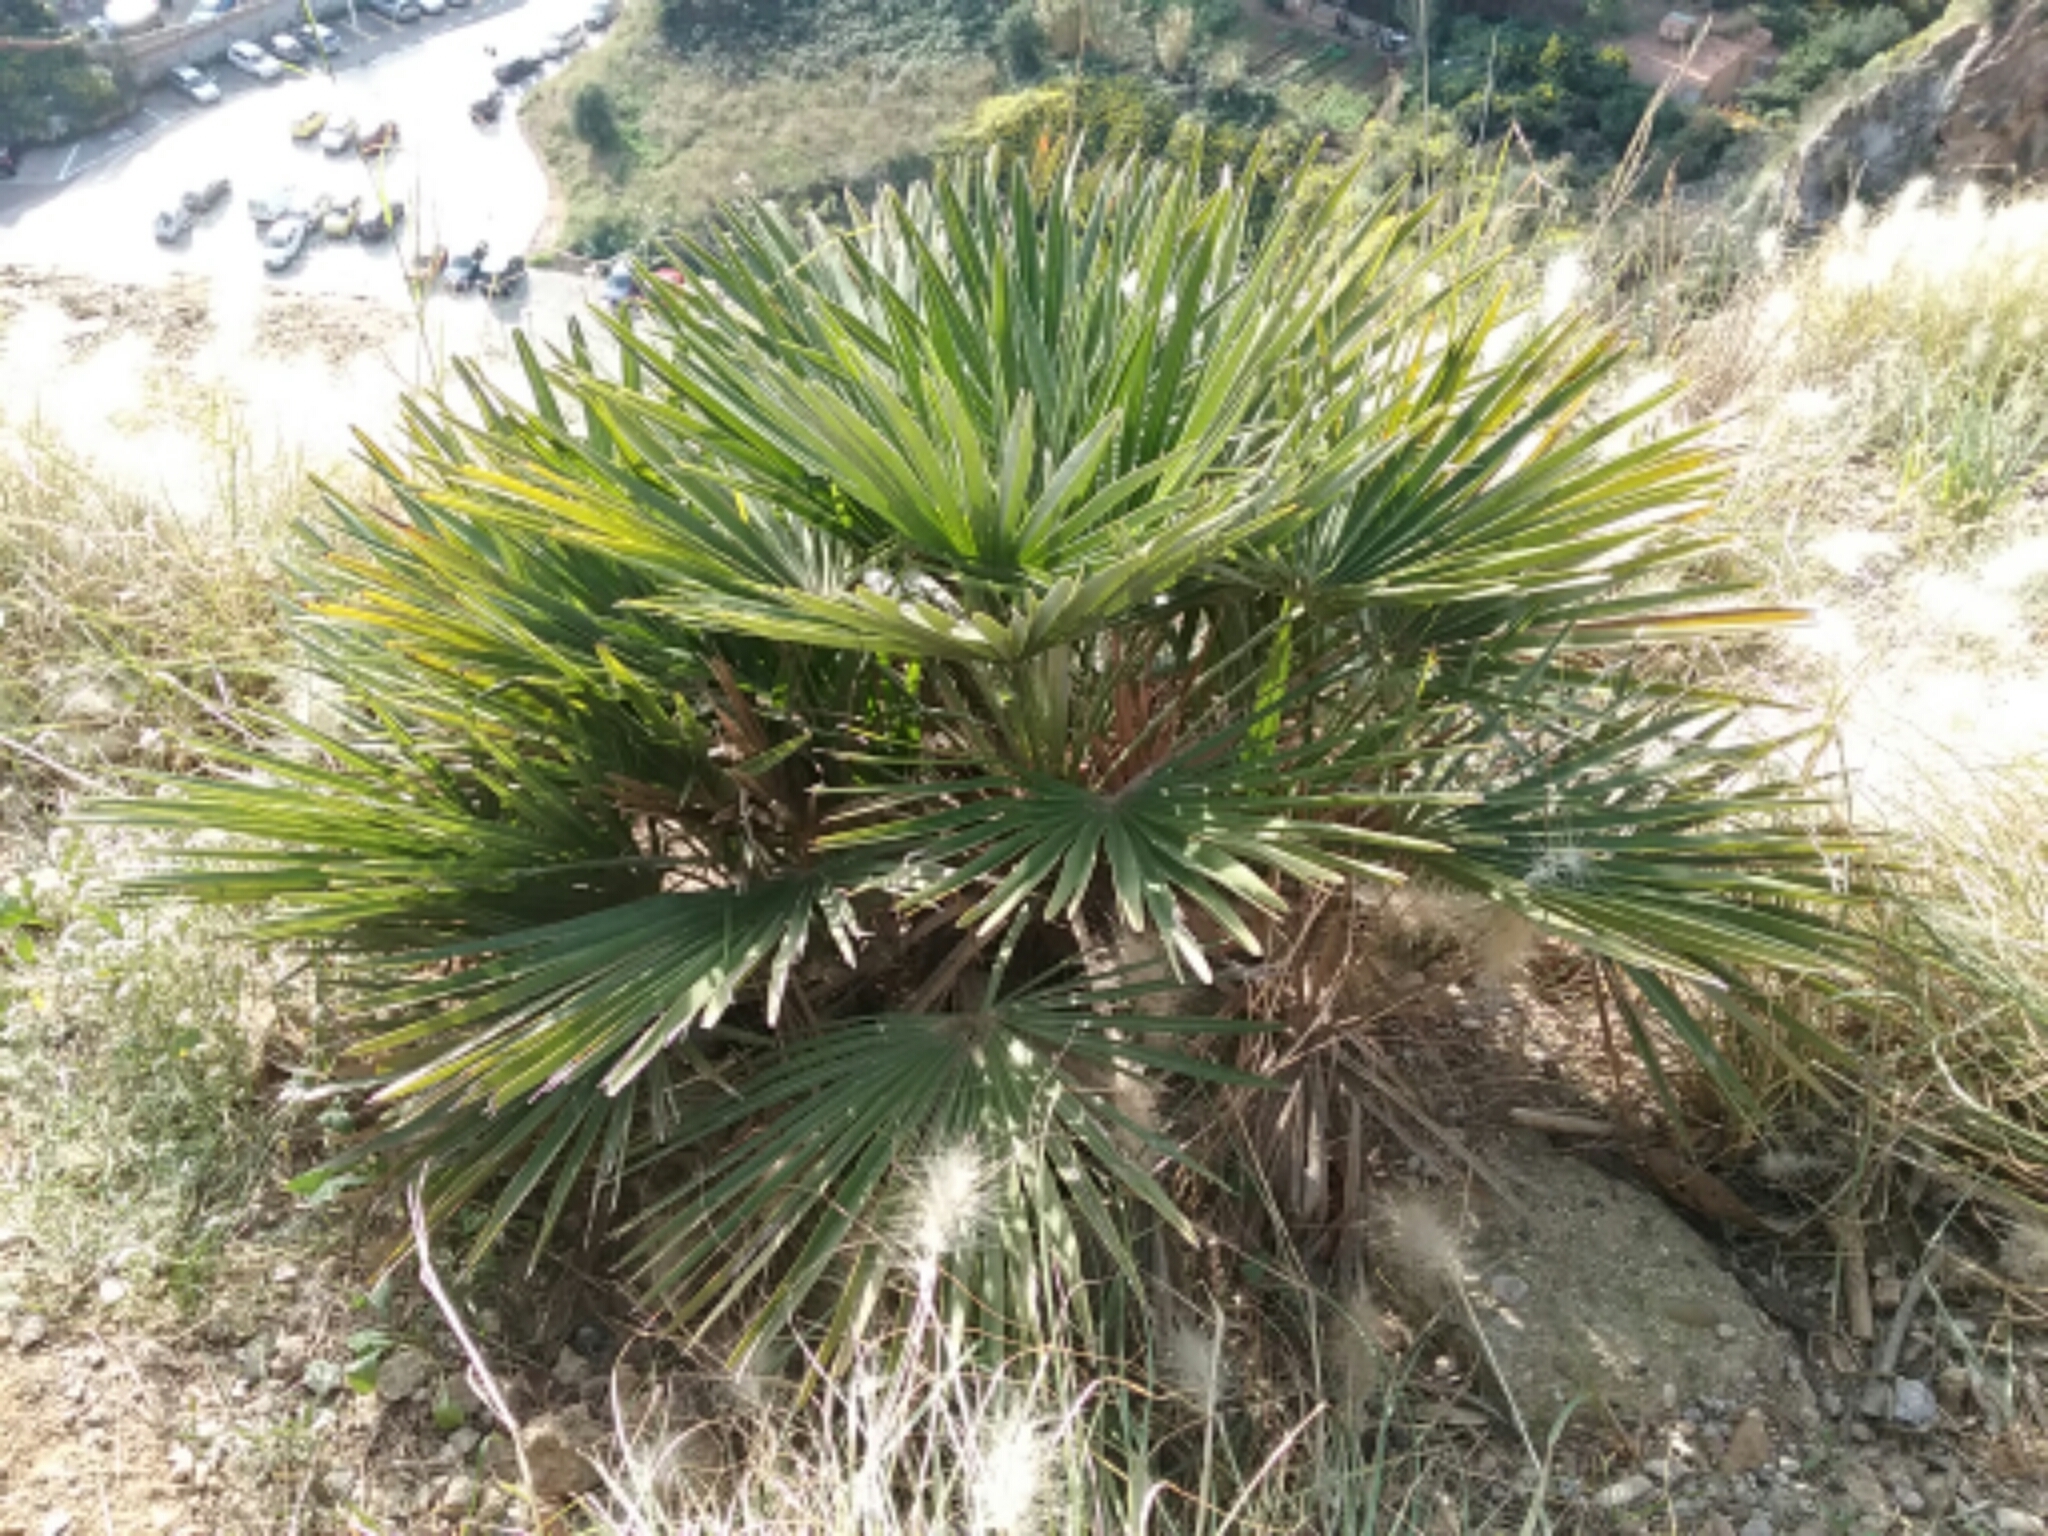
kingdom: Plantae
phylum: Tracheophyta
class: Liliopsida
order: Arecales
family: Arecaceae
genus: Chamaerops
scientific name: Chamaerops humilis
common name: Dwarf fan palm
